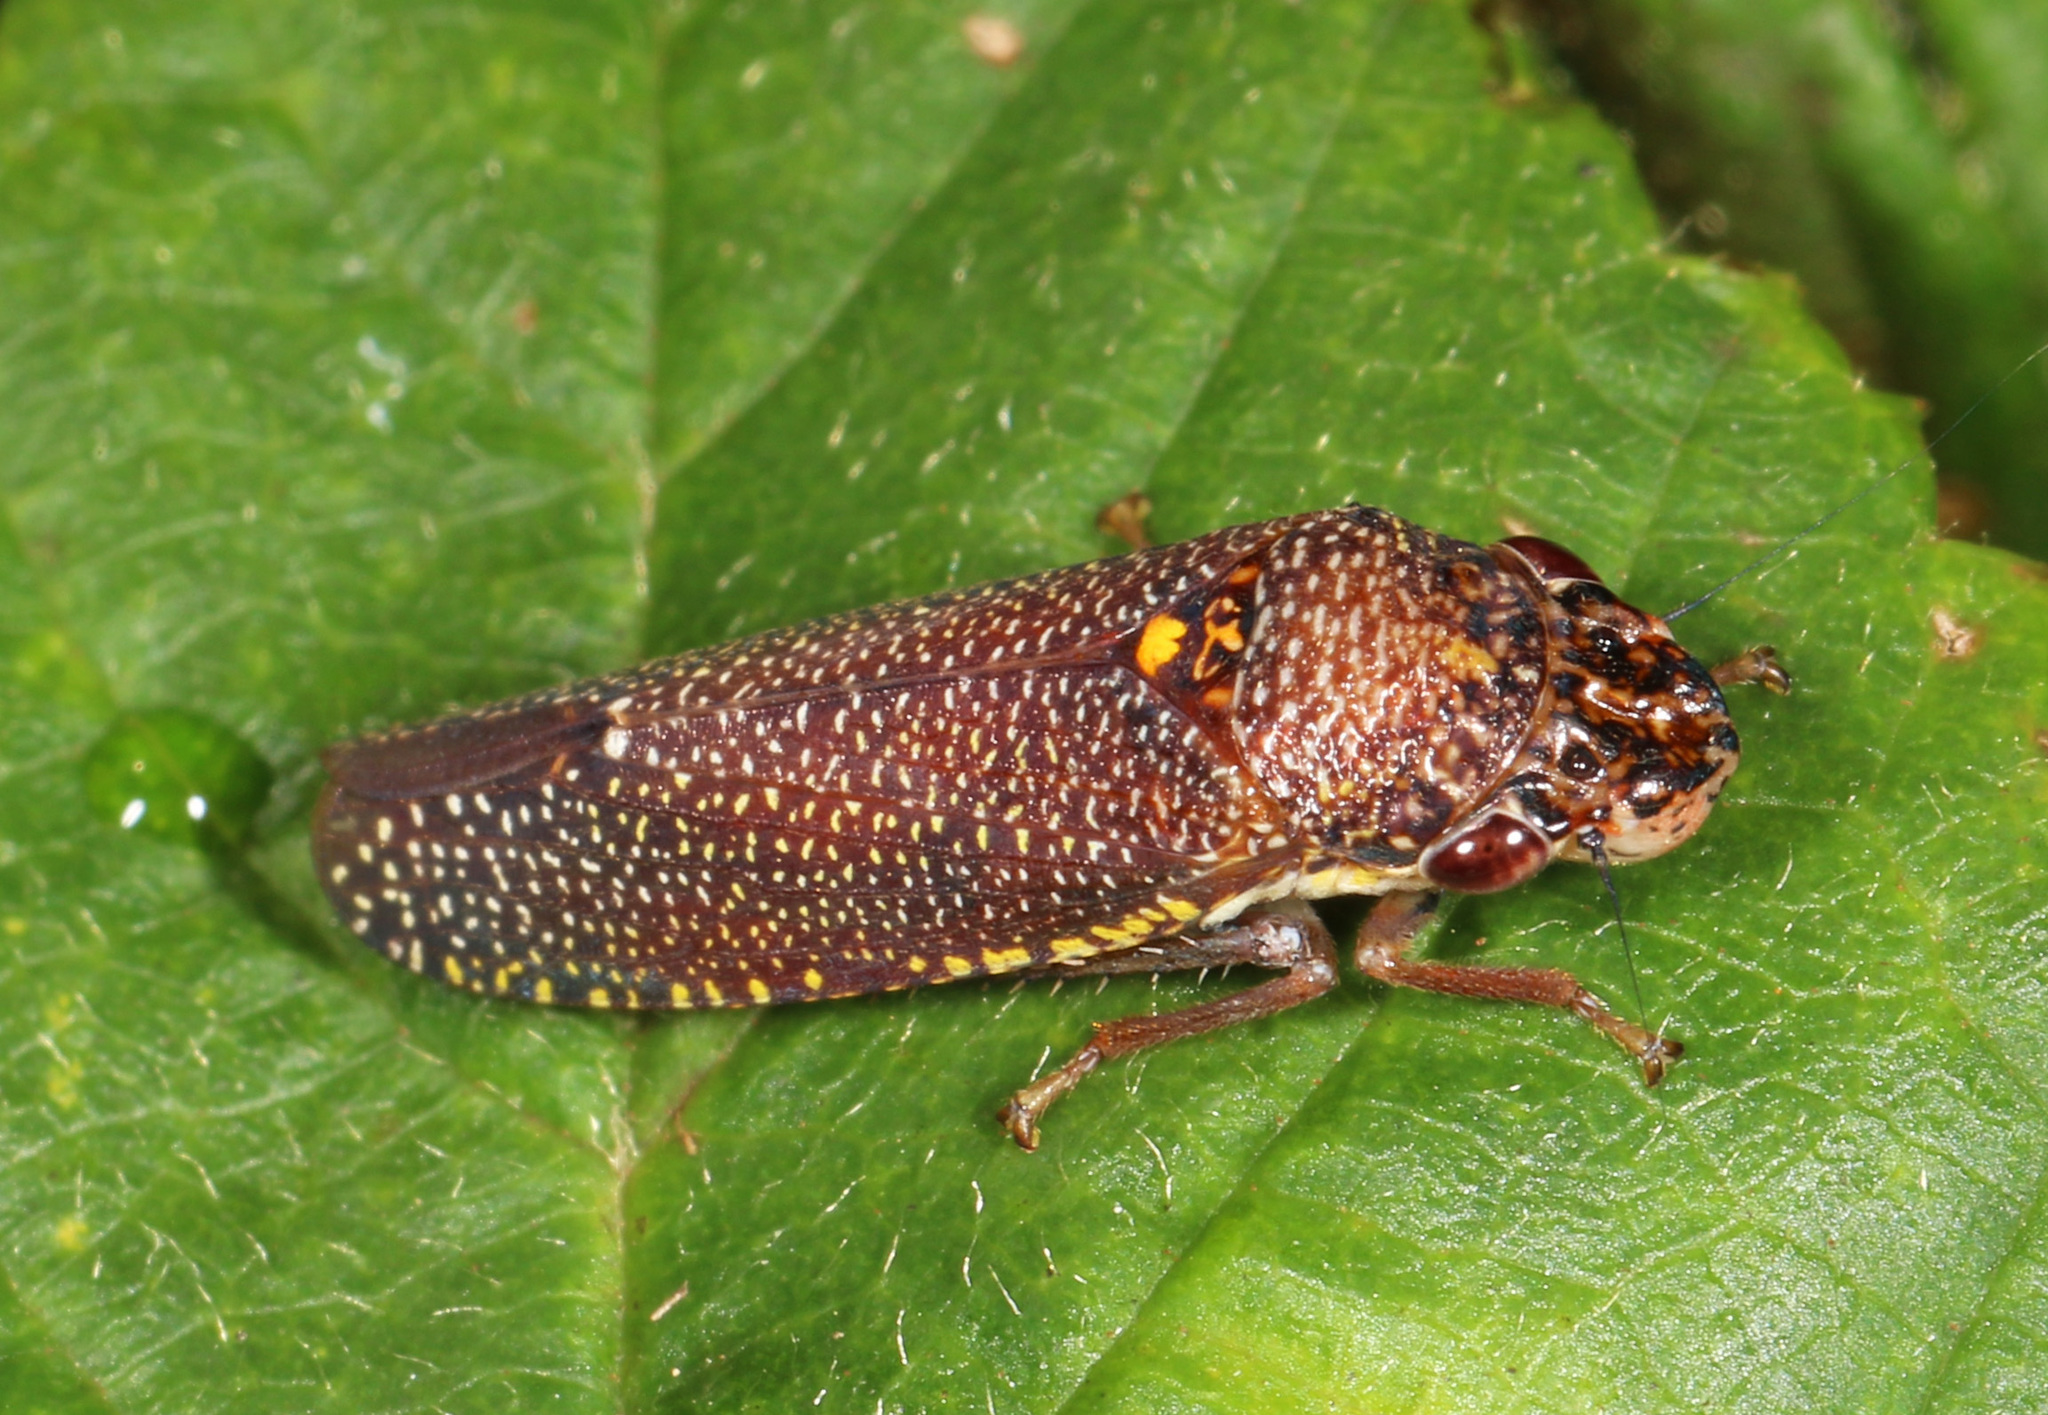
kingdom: Animalia
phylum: Arthropoda
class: Insecta
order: Hemiptera
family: Cicadellidae
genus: Paraulacizes
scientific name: Paraulacizes irrorata
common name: Speckled sharpshooter
